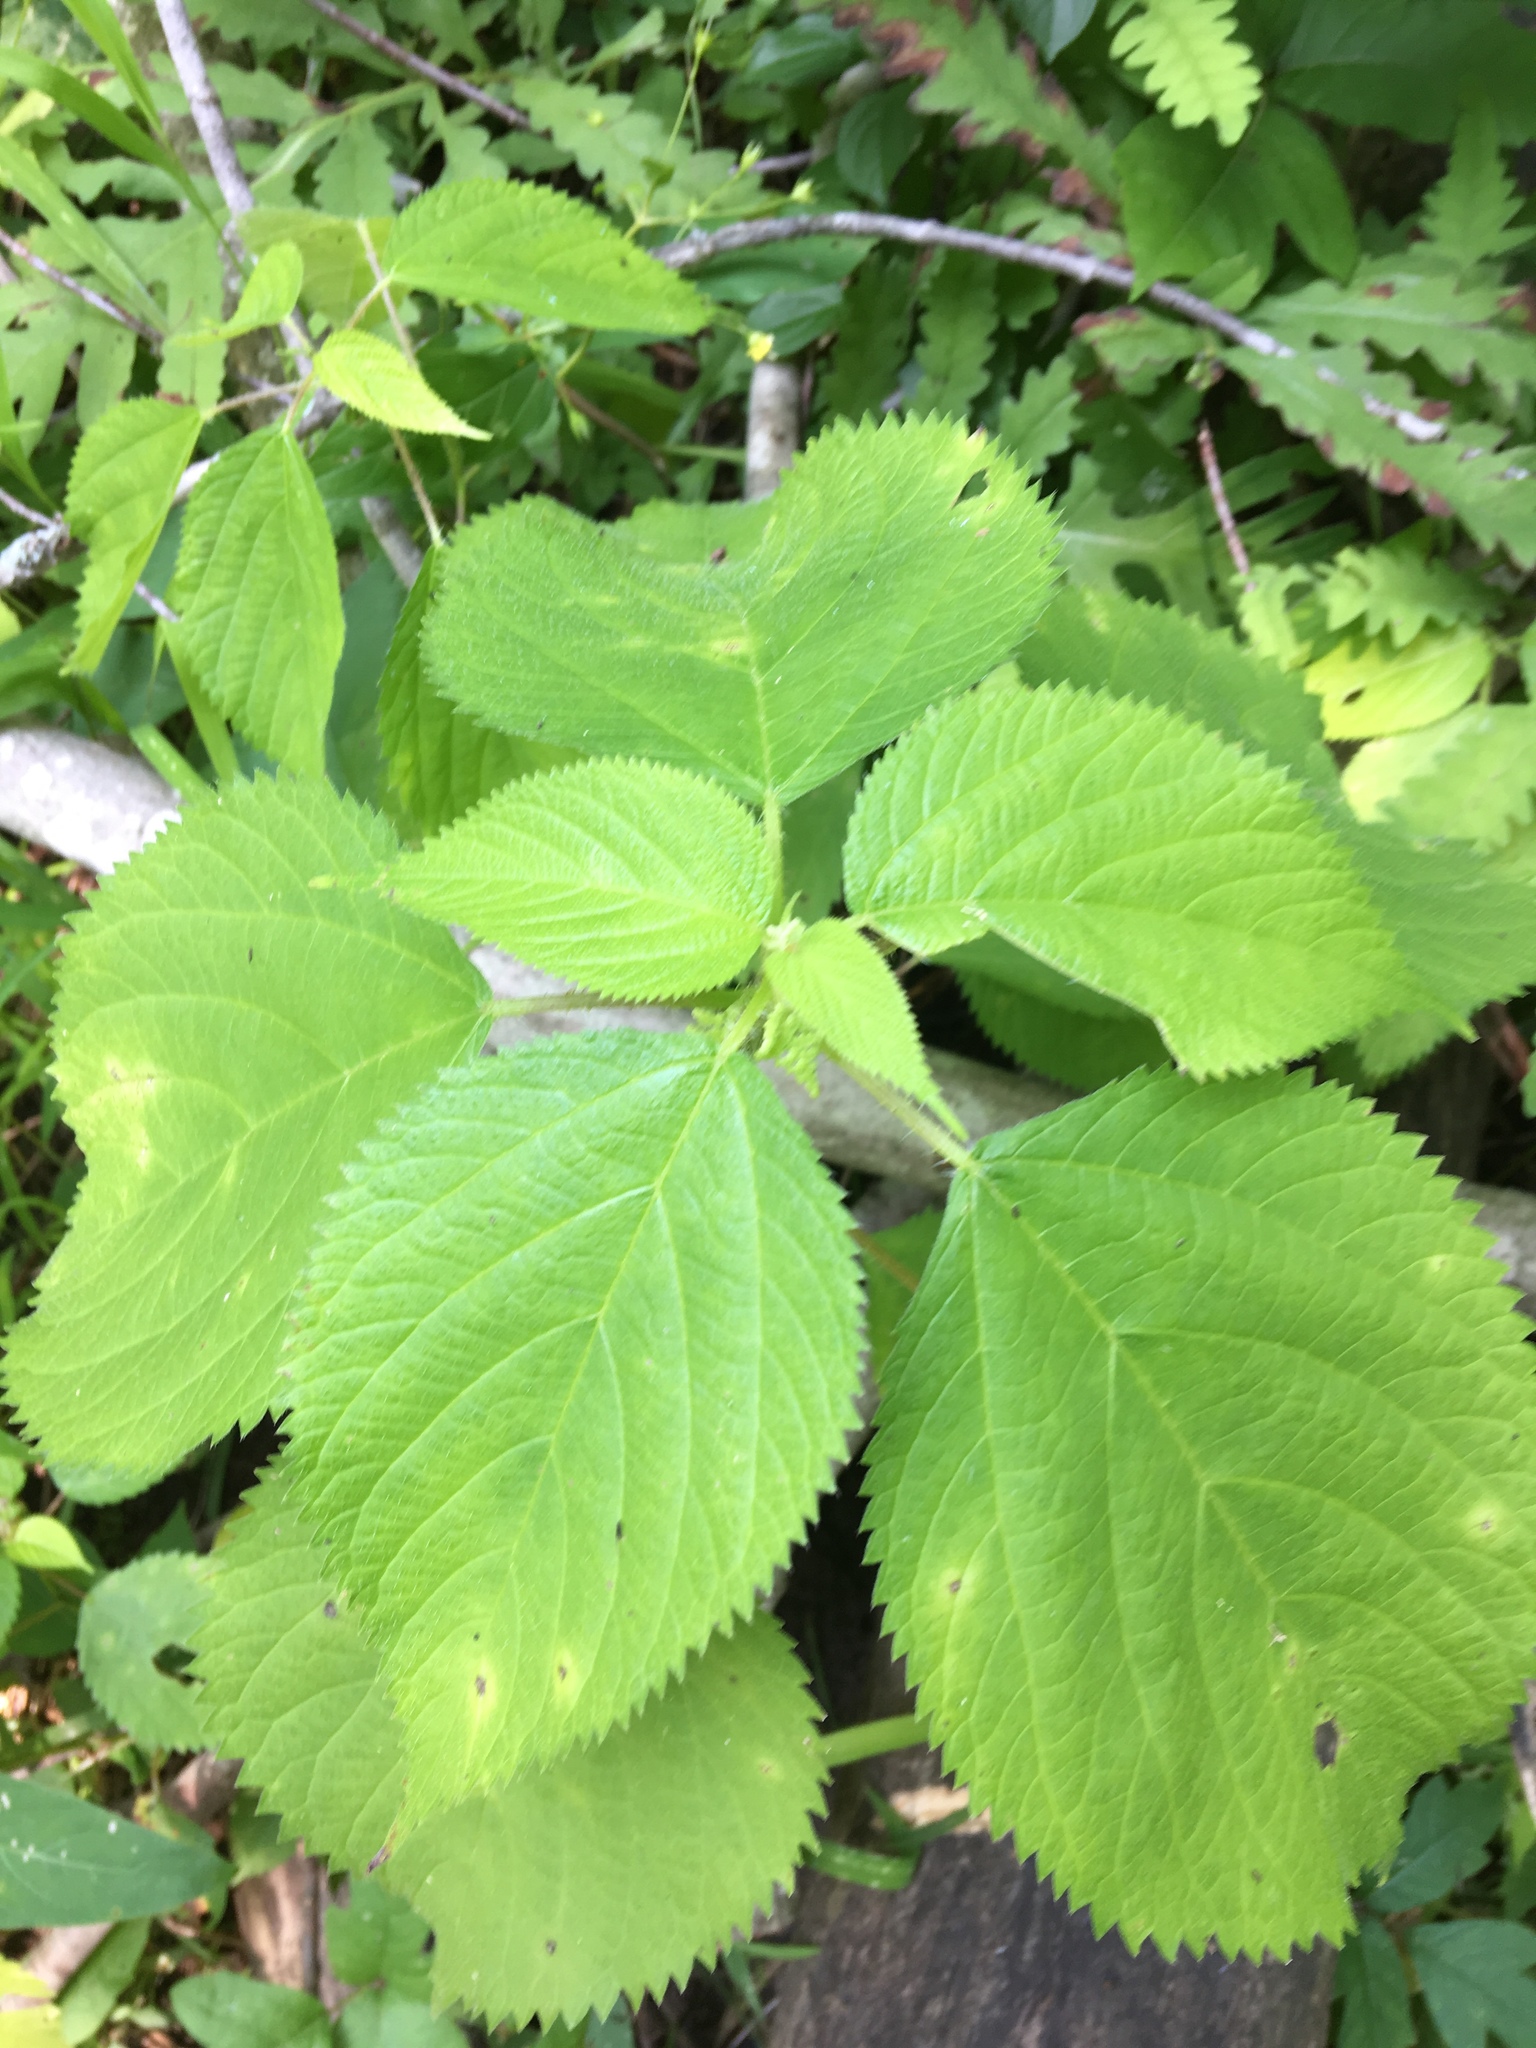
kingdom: Plantae
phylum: Tracheophyta
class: Magnoliopsida
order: Rosales
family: Urticaceae
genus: Laportea
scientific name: Laportea canadensis
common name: Canada nettle
